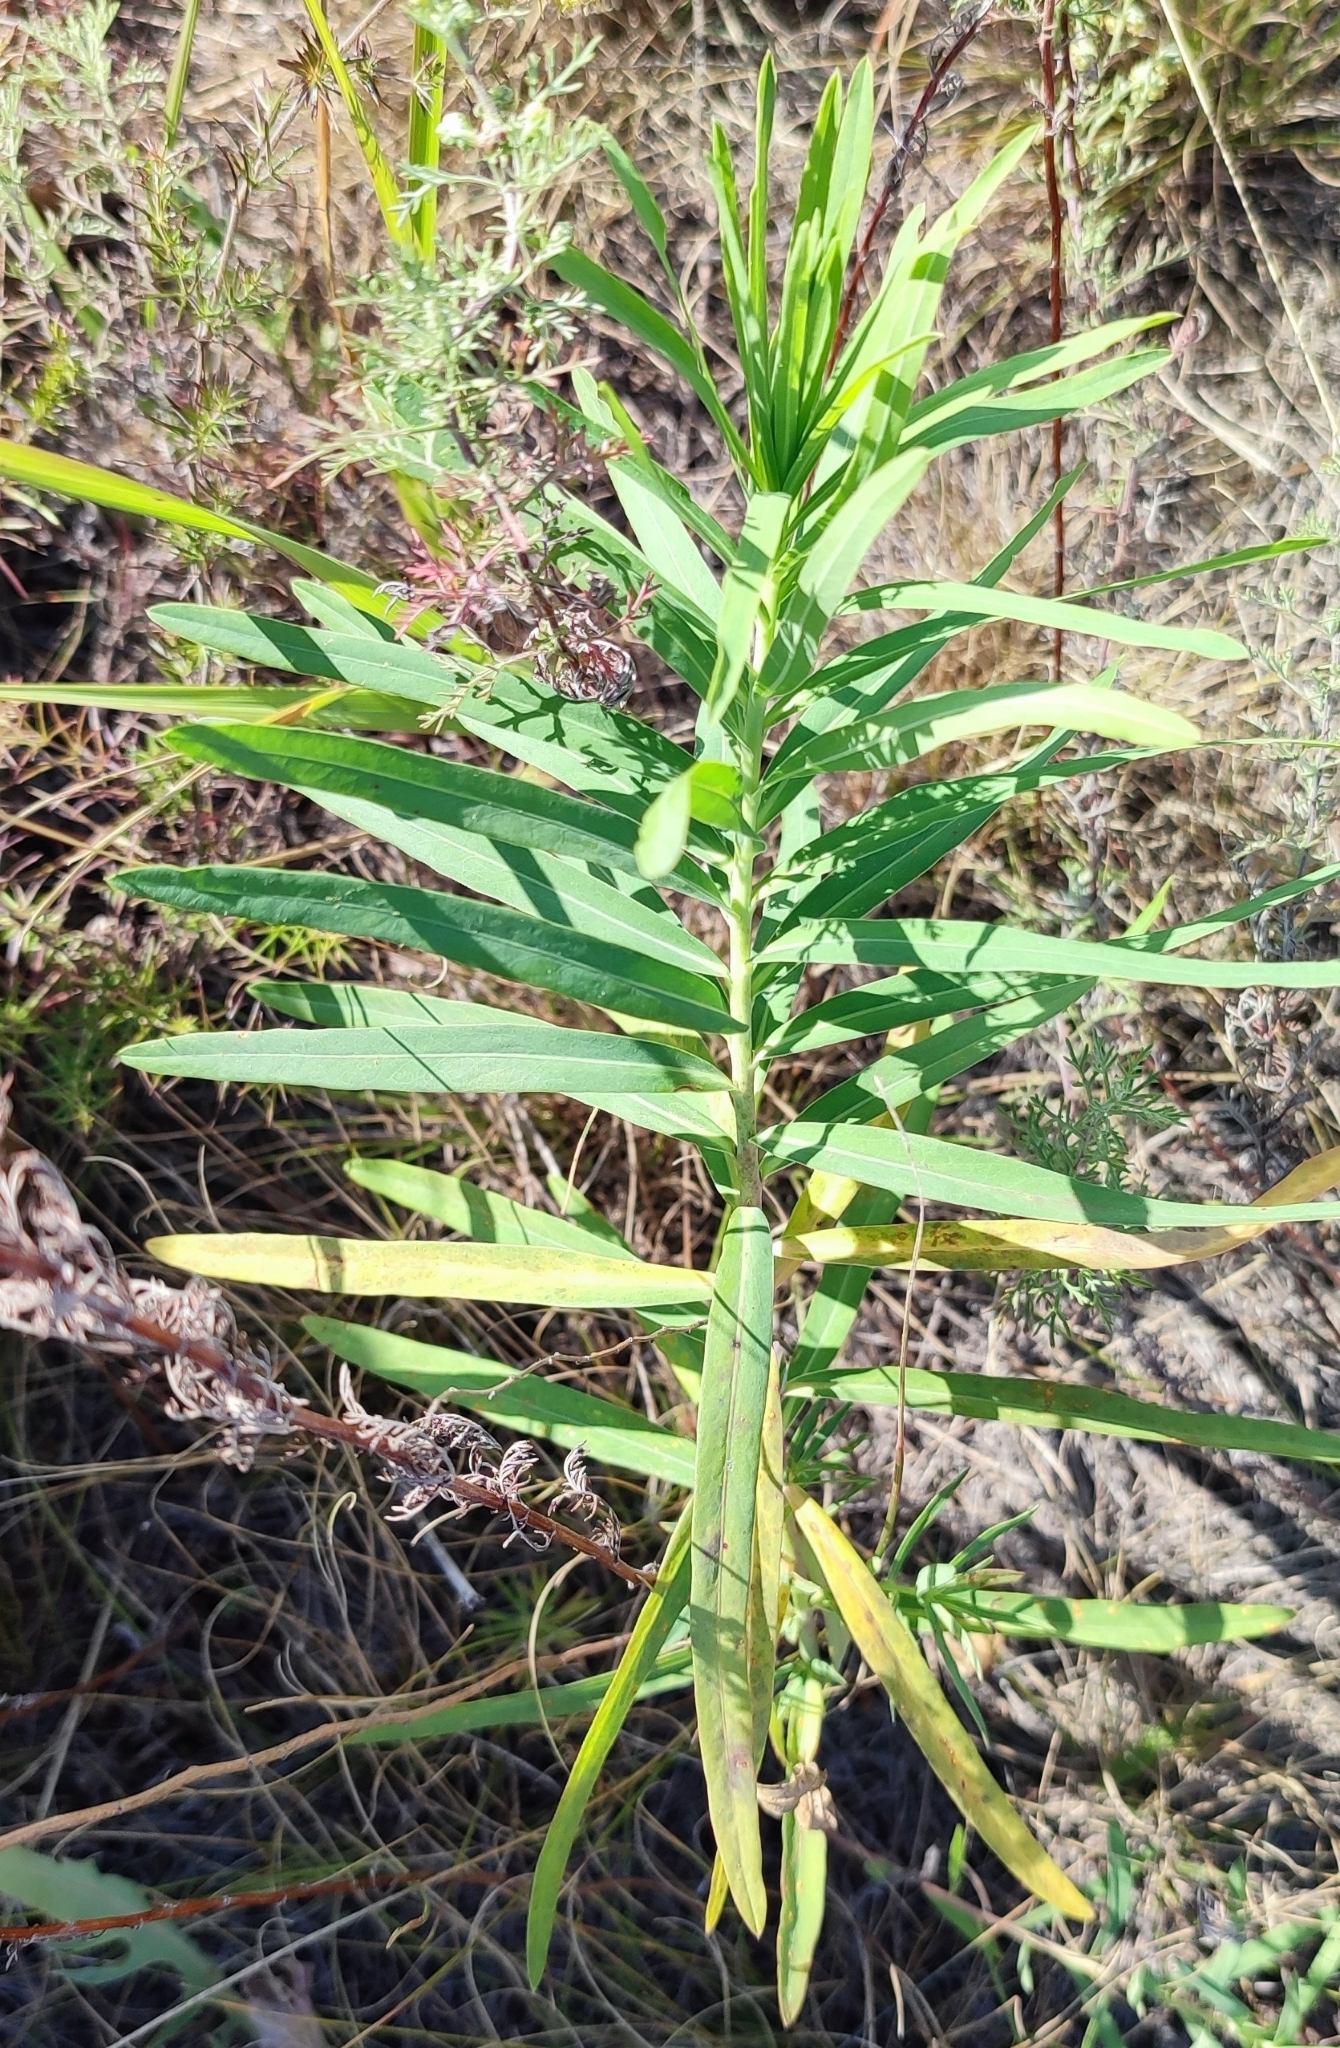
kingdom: Plantae
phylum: Tracheophyta
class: Magnoliopsida
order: Malpighiales
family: Euphorbiaceae
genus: Euphorbia
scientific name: Euphorbia virgata
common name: Leafy spurge
